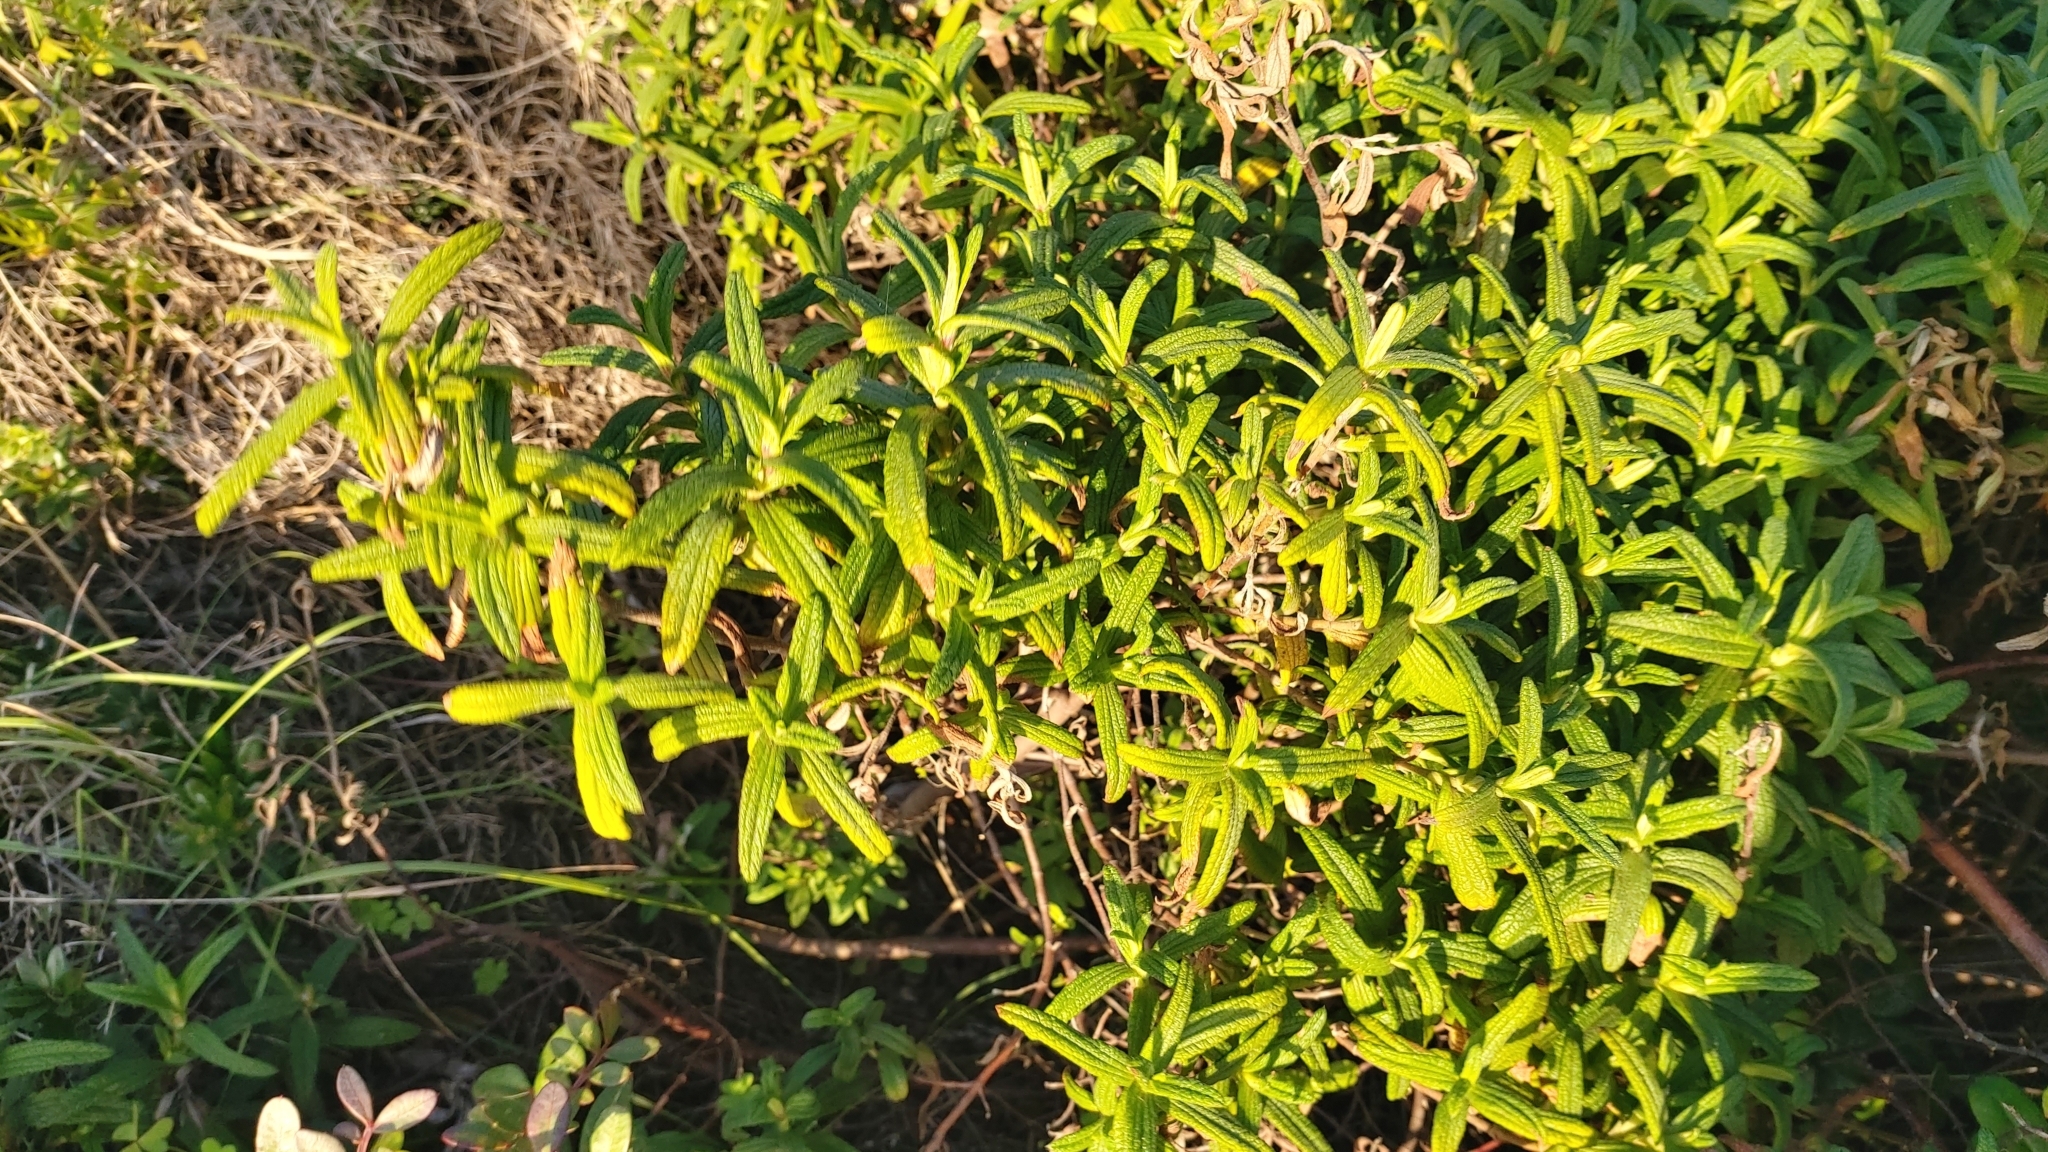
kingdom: Plantae
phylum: Tracheophyta
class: Magnoliopsida
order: Malvales
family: Cistaceae
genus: Cistus
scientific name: Cistus monspeliensis
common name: Montpelier cistus
